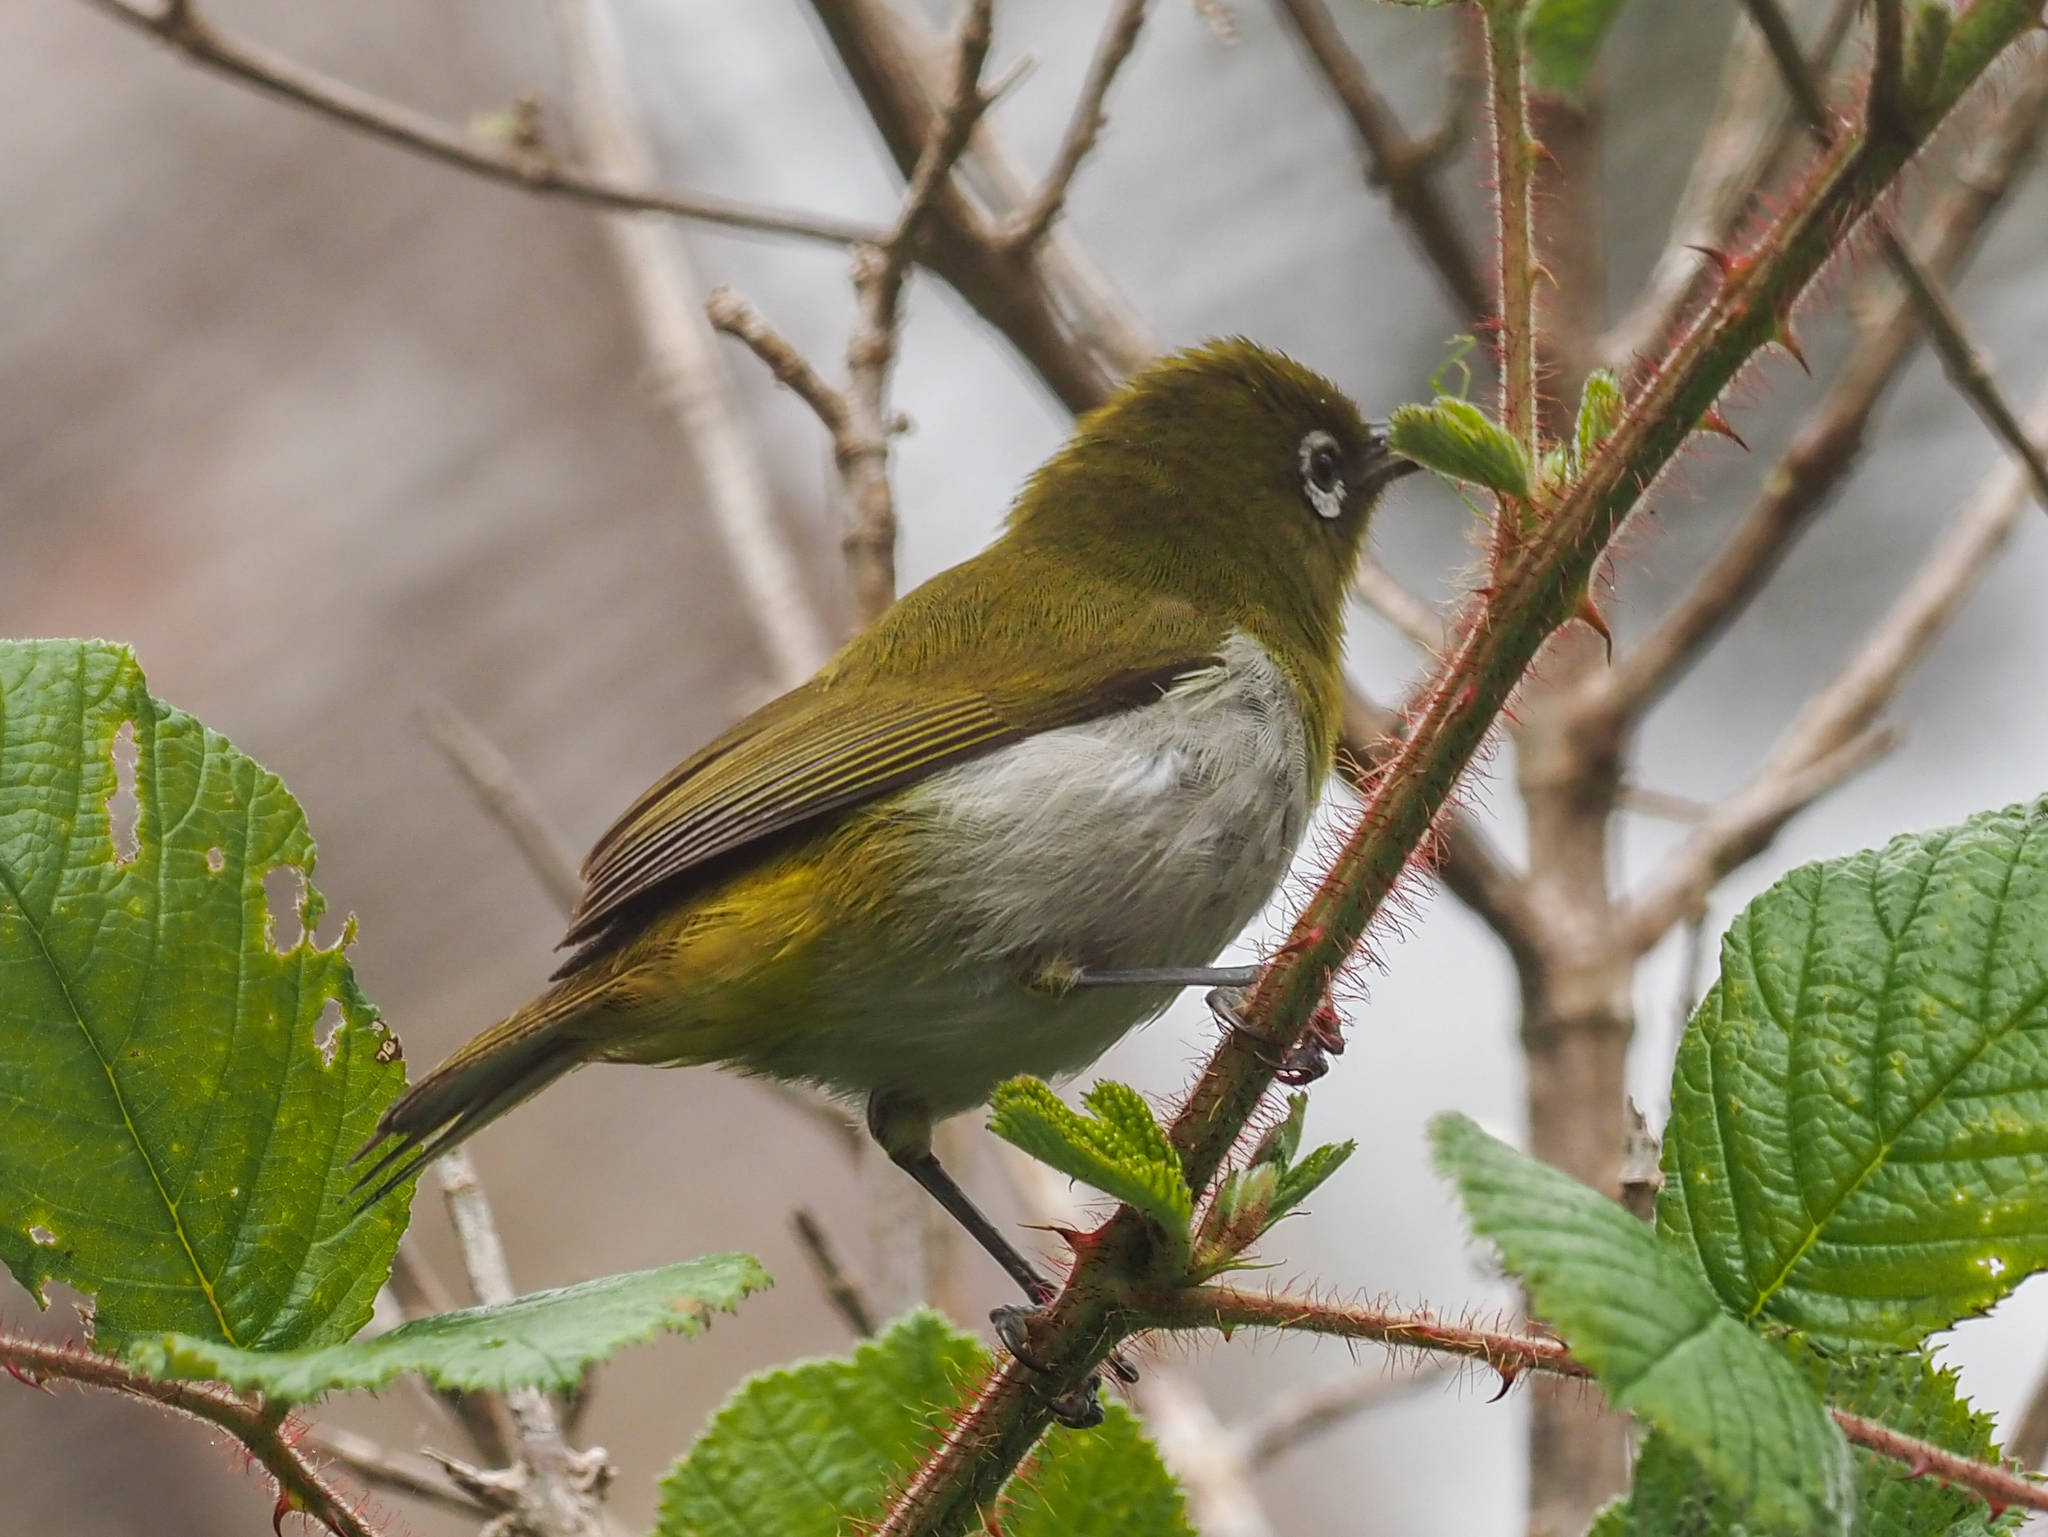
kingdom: Animalia
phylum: Chordata
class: Aves
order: Passeriformes
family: Zosteropidae
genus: Zosterops
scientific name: Zosterops ceylonensis
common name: Sri lanka white-eye
